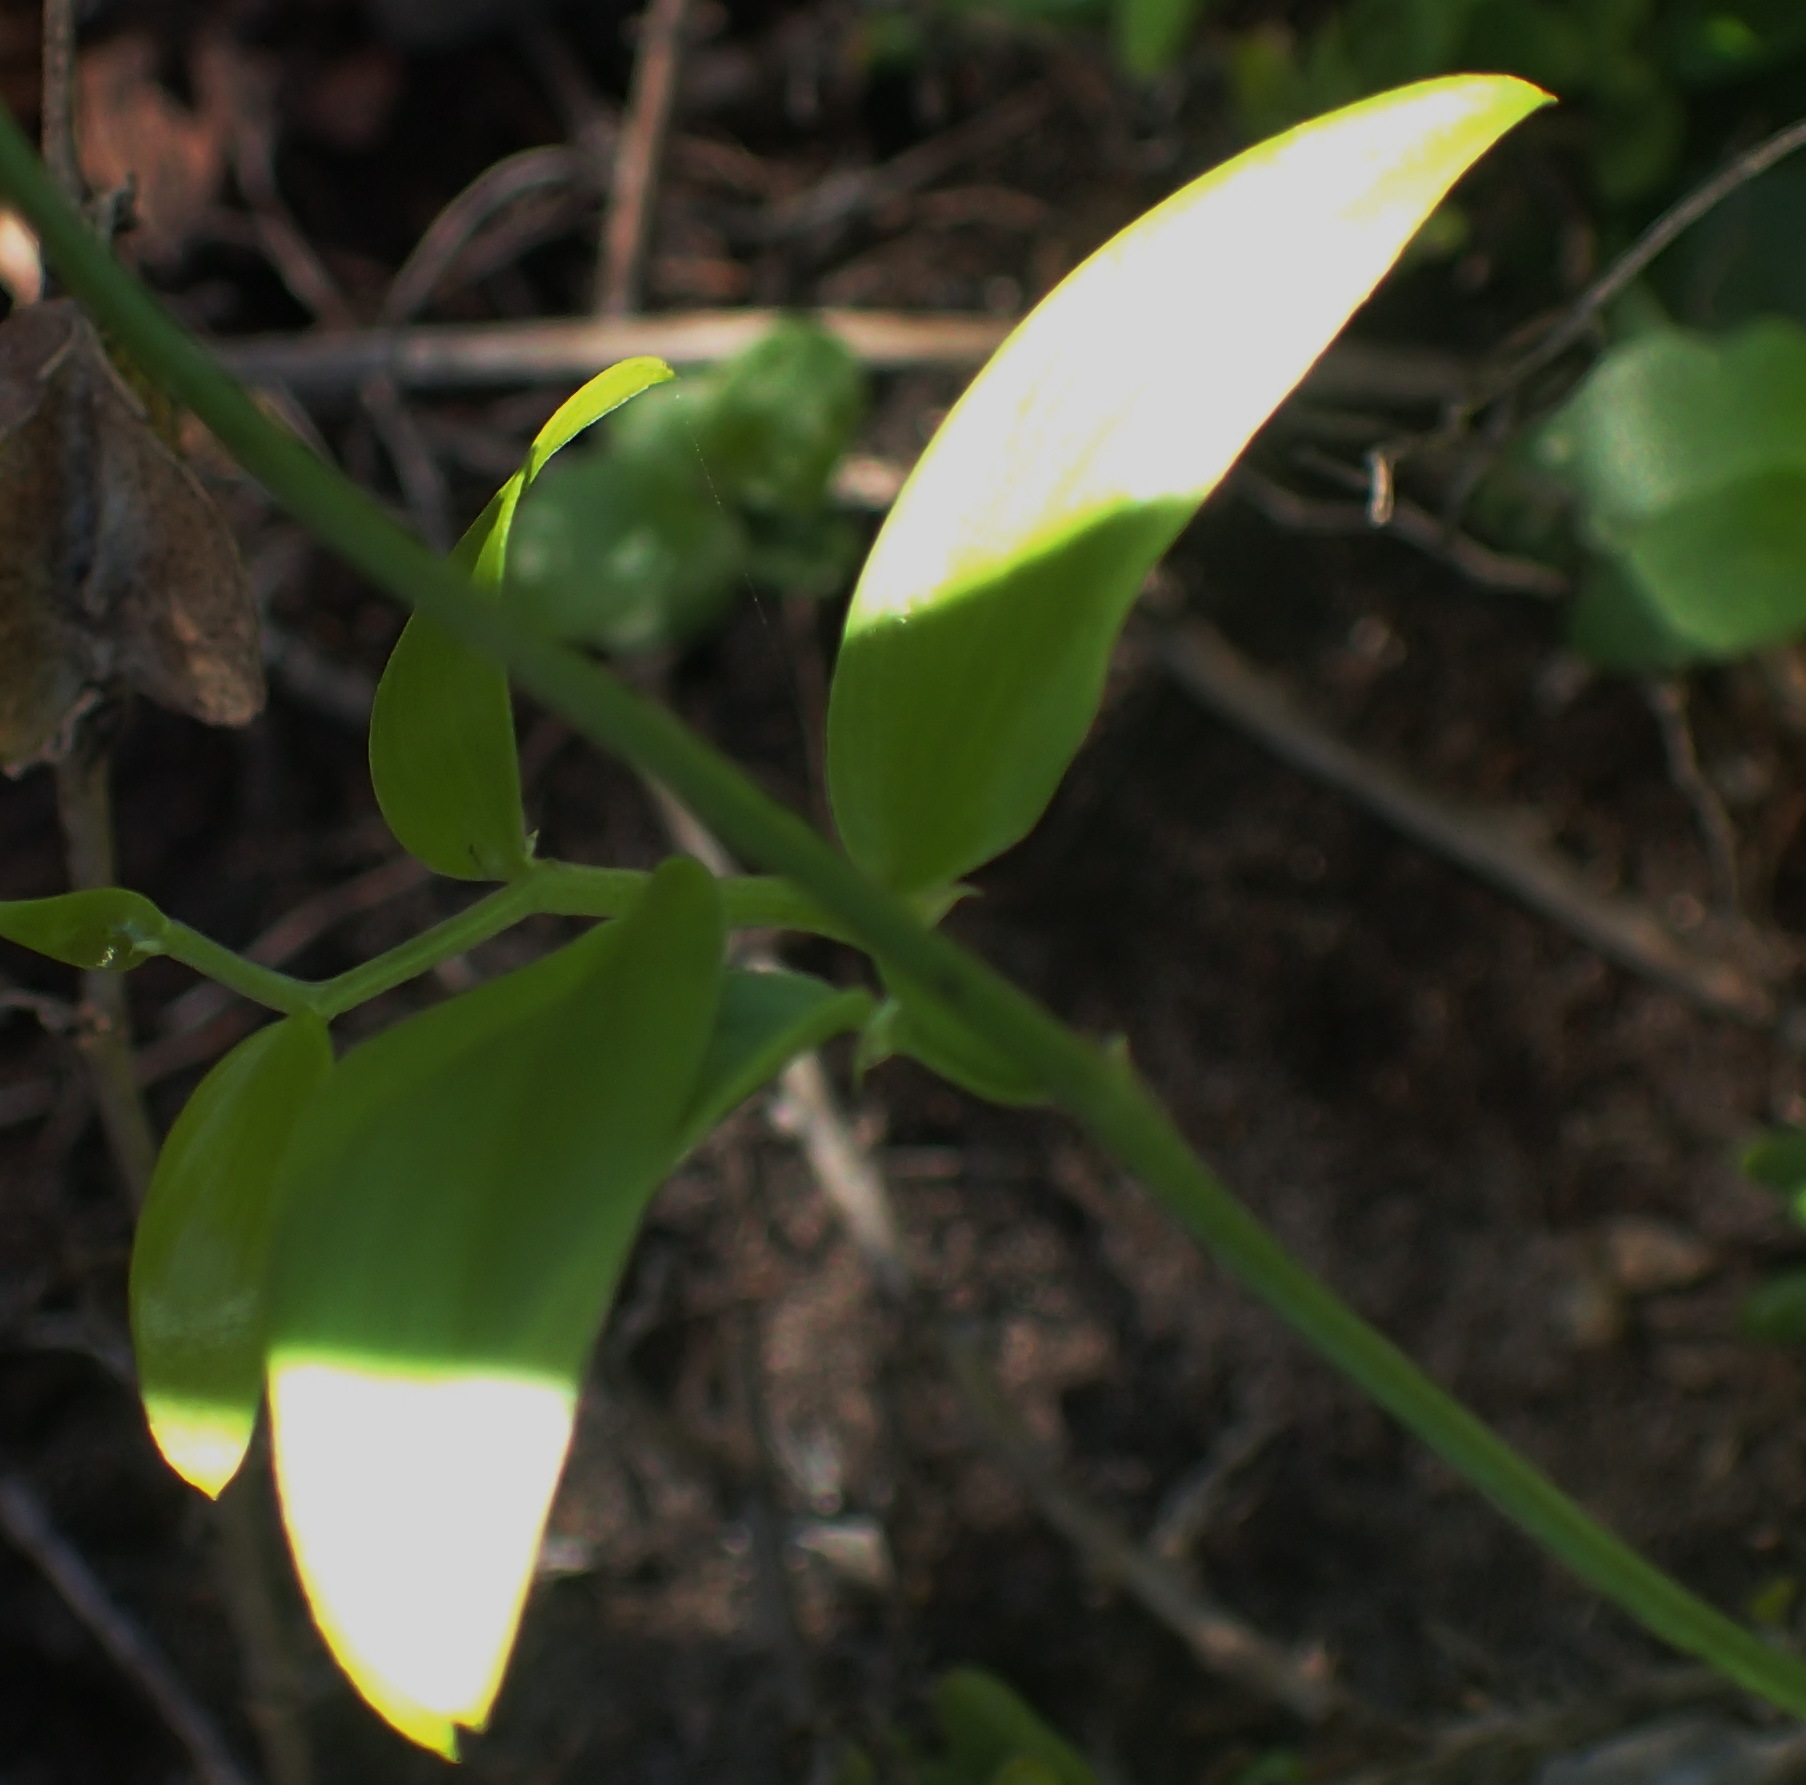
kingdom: Plantae
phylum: Tracheophyta
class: Liliopsida
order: Asparagales
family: Asparagaceae
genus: Asparagus
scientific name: Asparagus asparagoides
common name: African asparagus fern
